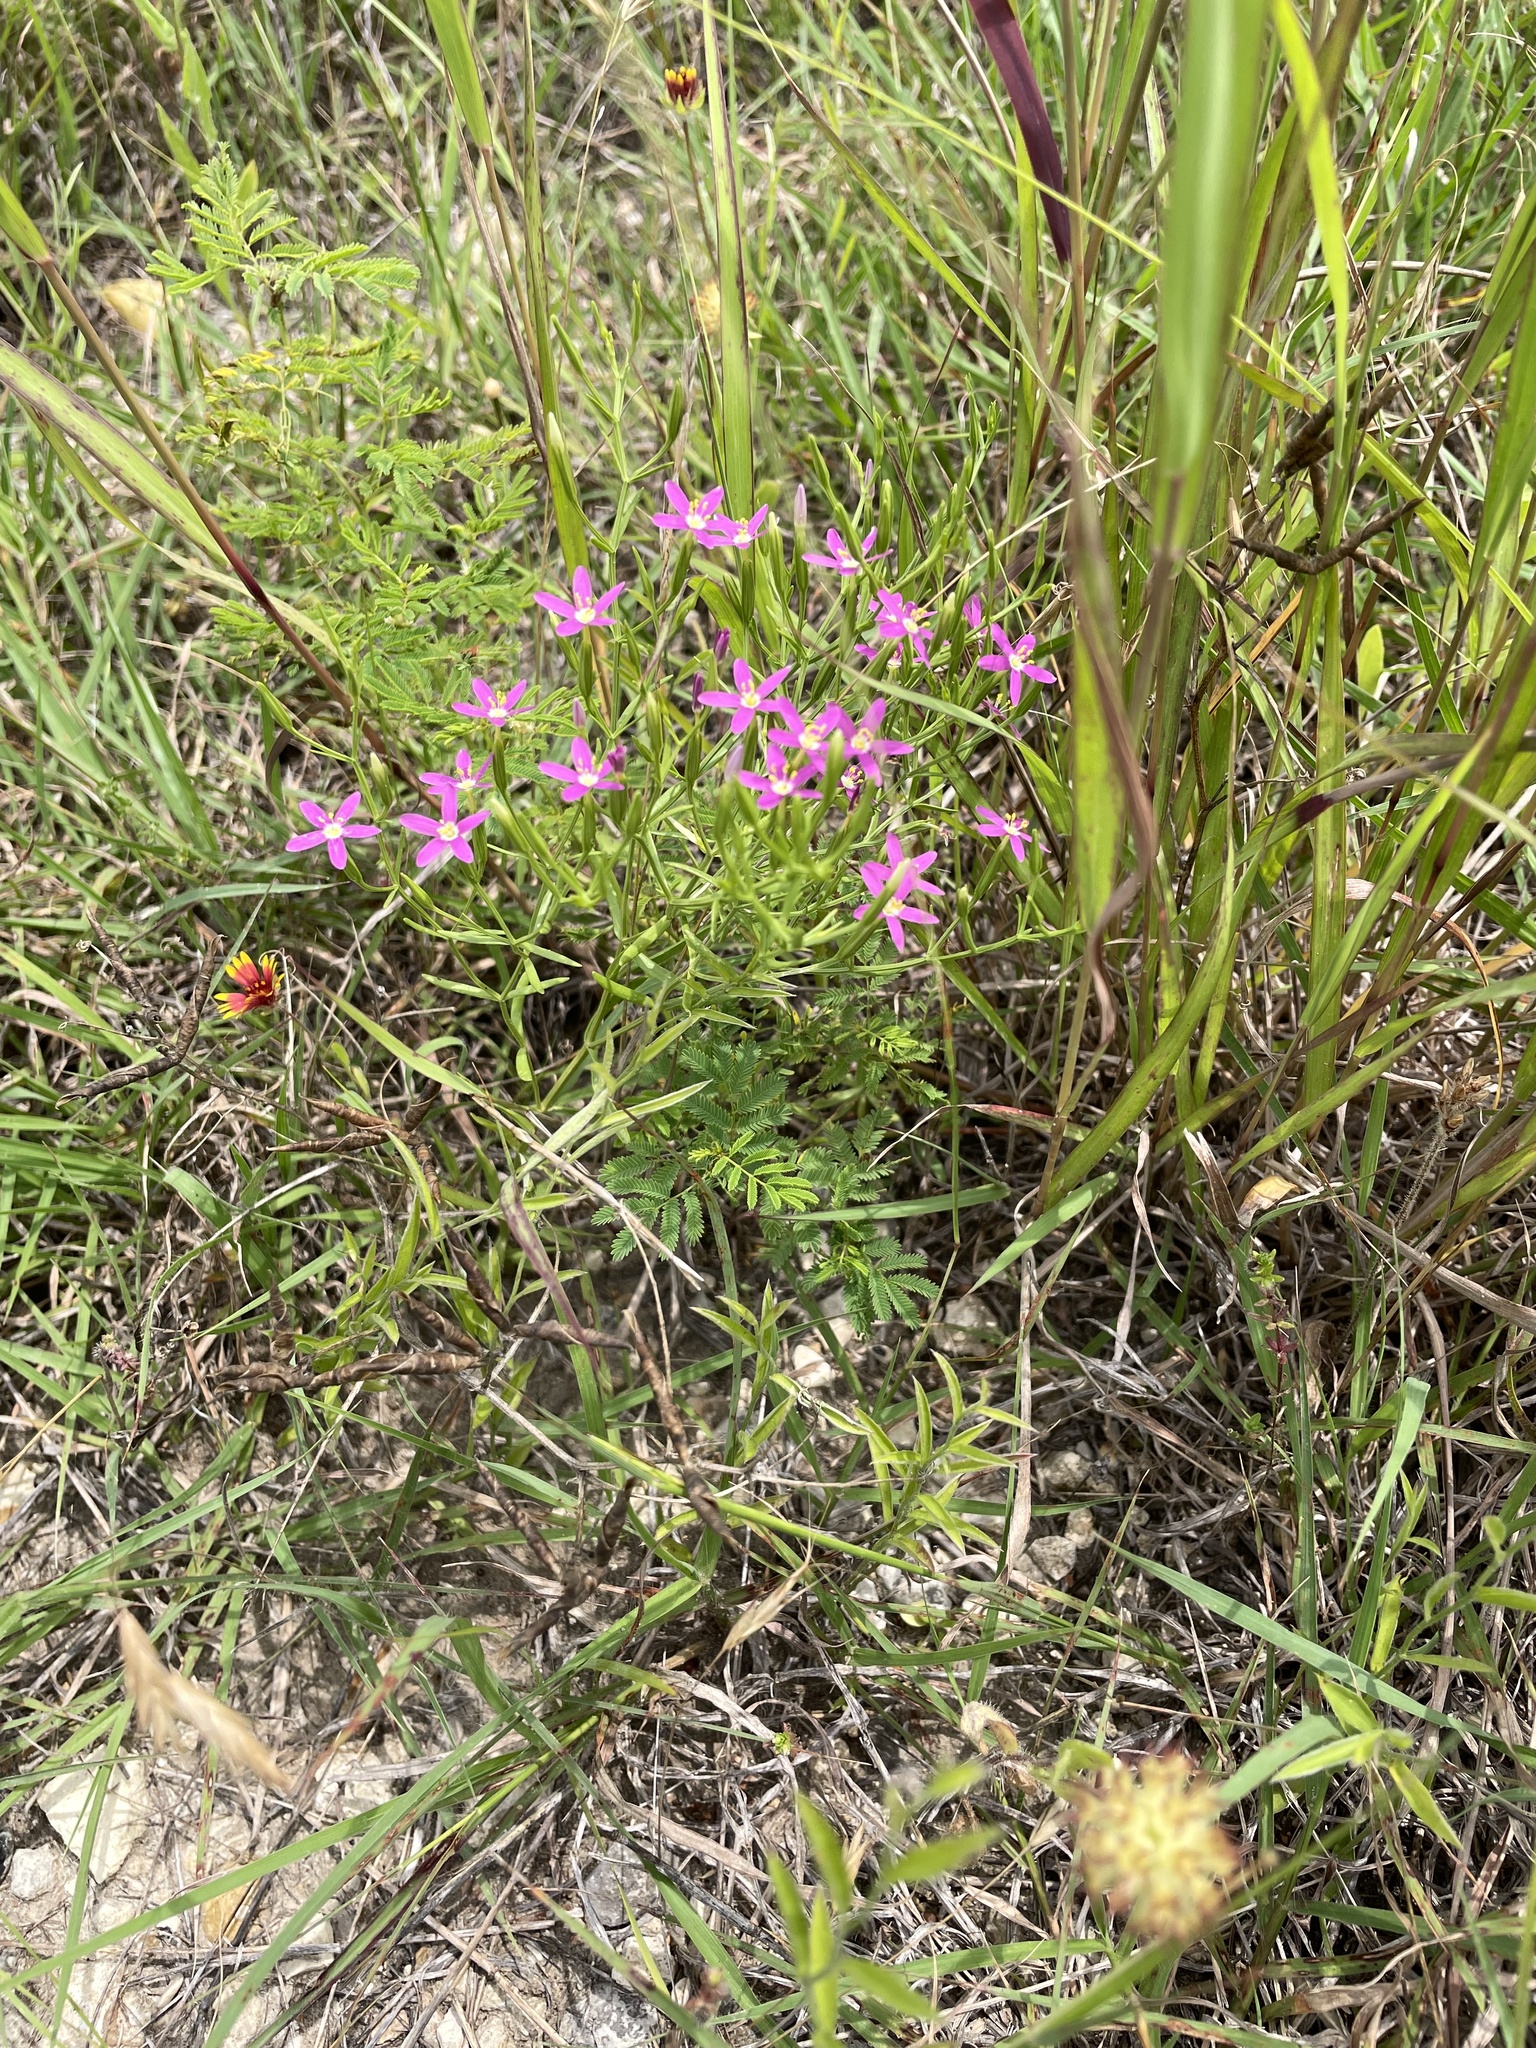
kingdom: Plantae
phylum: Tracheophyta
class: Magnoliopsida
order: Gentianales
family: Gentianaceae
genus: Zeltnera
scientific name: Zeltnera texensis
